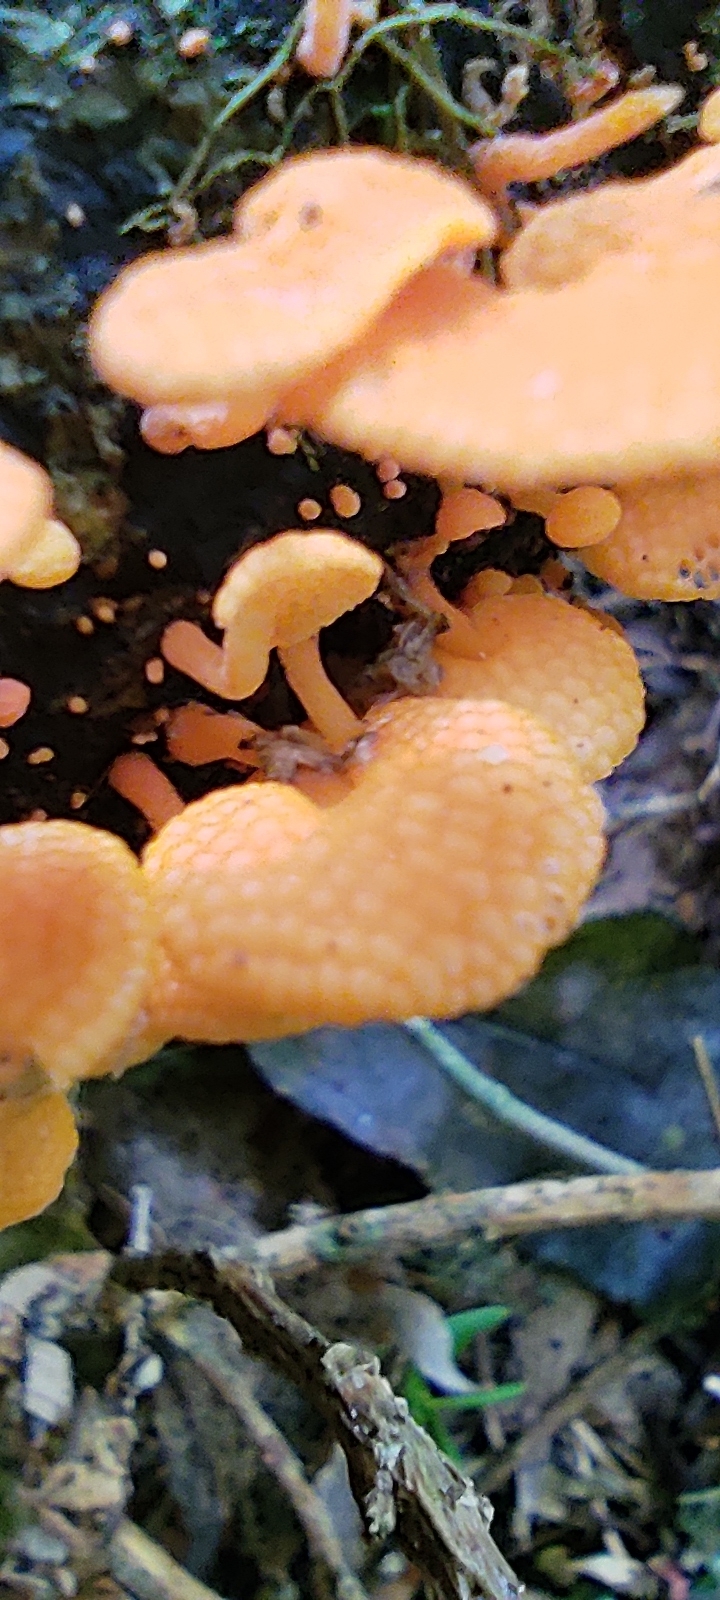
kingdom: Fungi
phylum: Basidiomycota
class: Agaricomycetes
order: Agaricales
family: Mycenaceae
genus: Favolaschia
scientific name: Favolaschia claudopus
